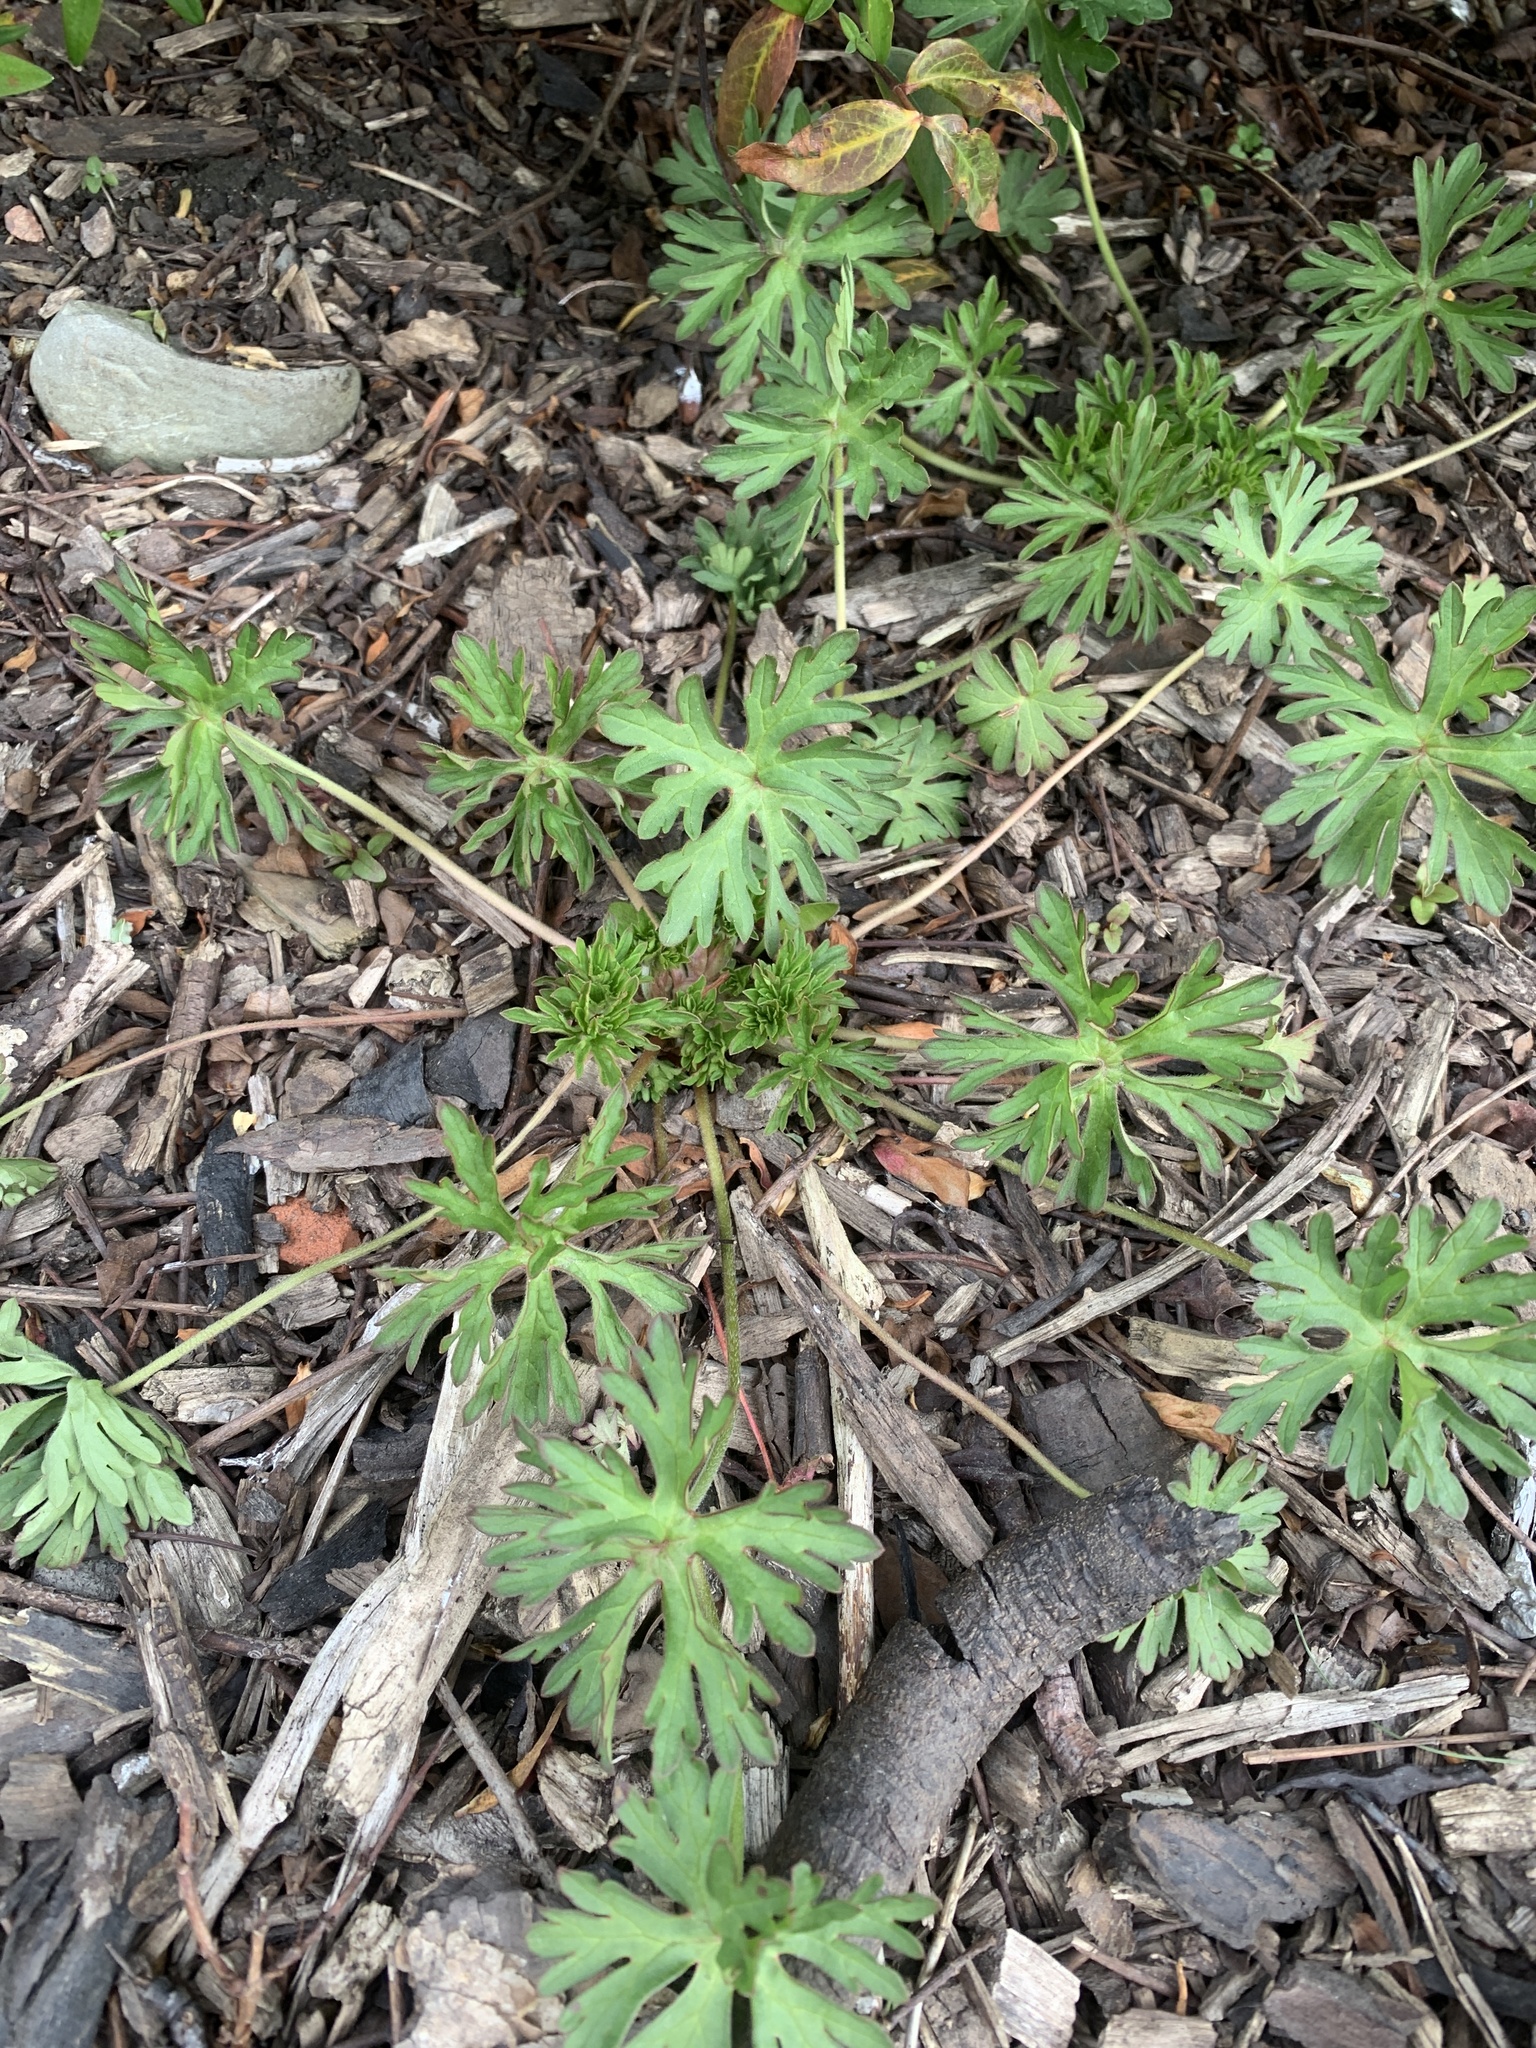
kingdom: Plantae
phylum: Tracheophyta
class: Magnoliopsida
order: Geraniales
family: Geraniaceae
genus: Geranium
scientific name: Geranium dissectum
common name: Cut-leaved crane's-bill
